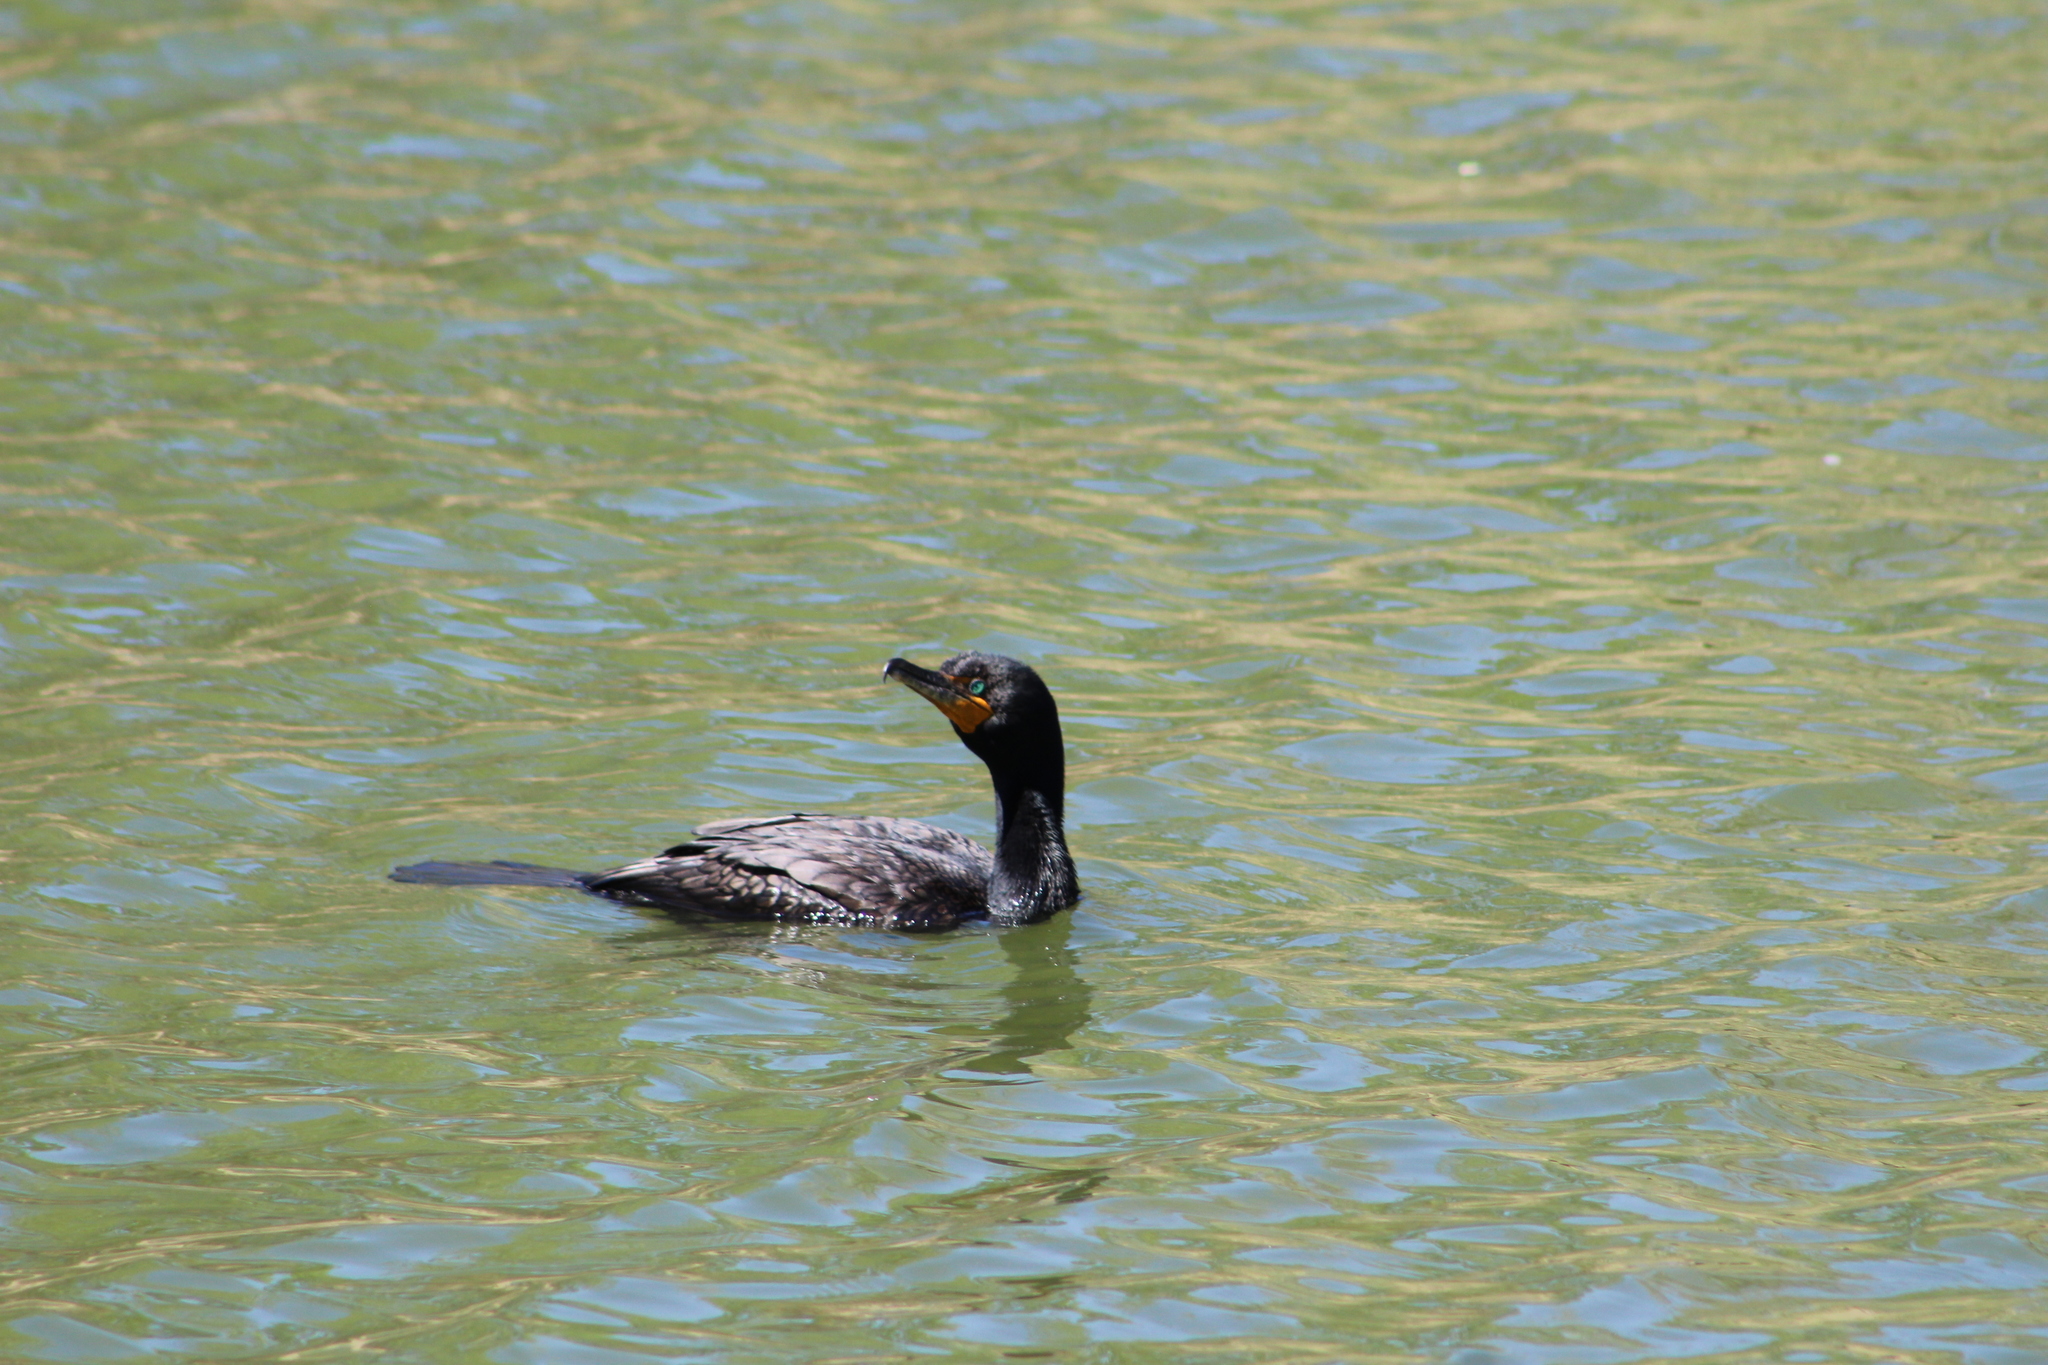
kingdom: Animalia
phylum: Chordata
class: Aves
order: Suliformes
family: Phalacrocoracidae
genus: Phalacrocorax
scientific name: Phalacrocorax auritus
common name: Double-crested cormorant
